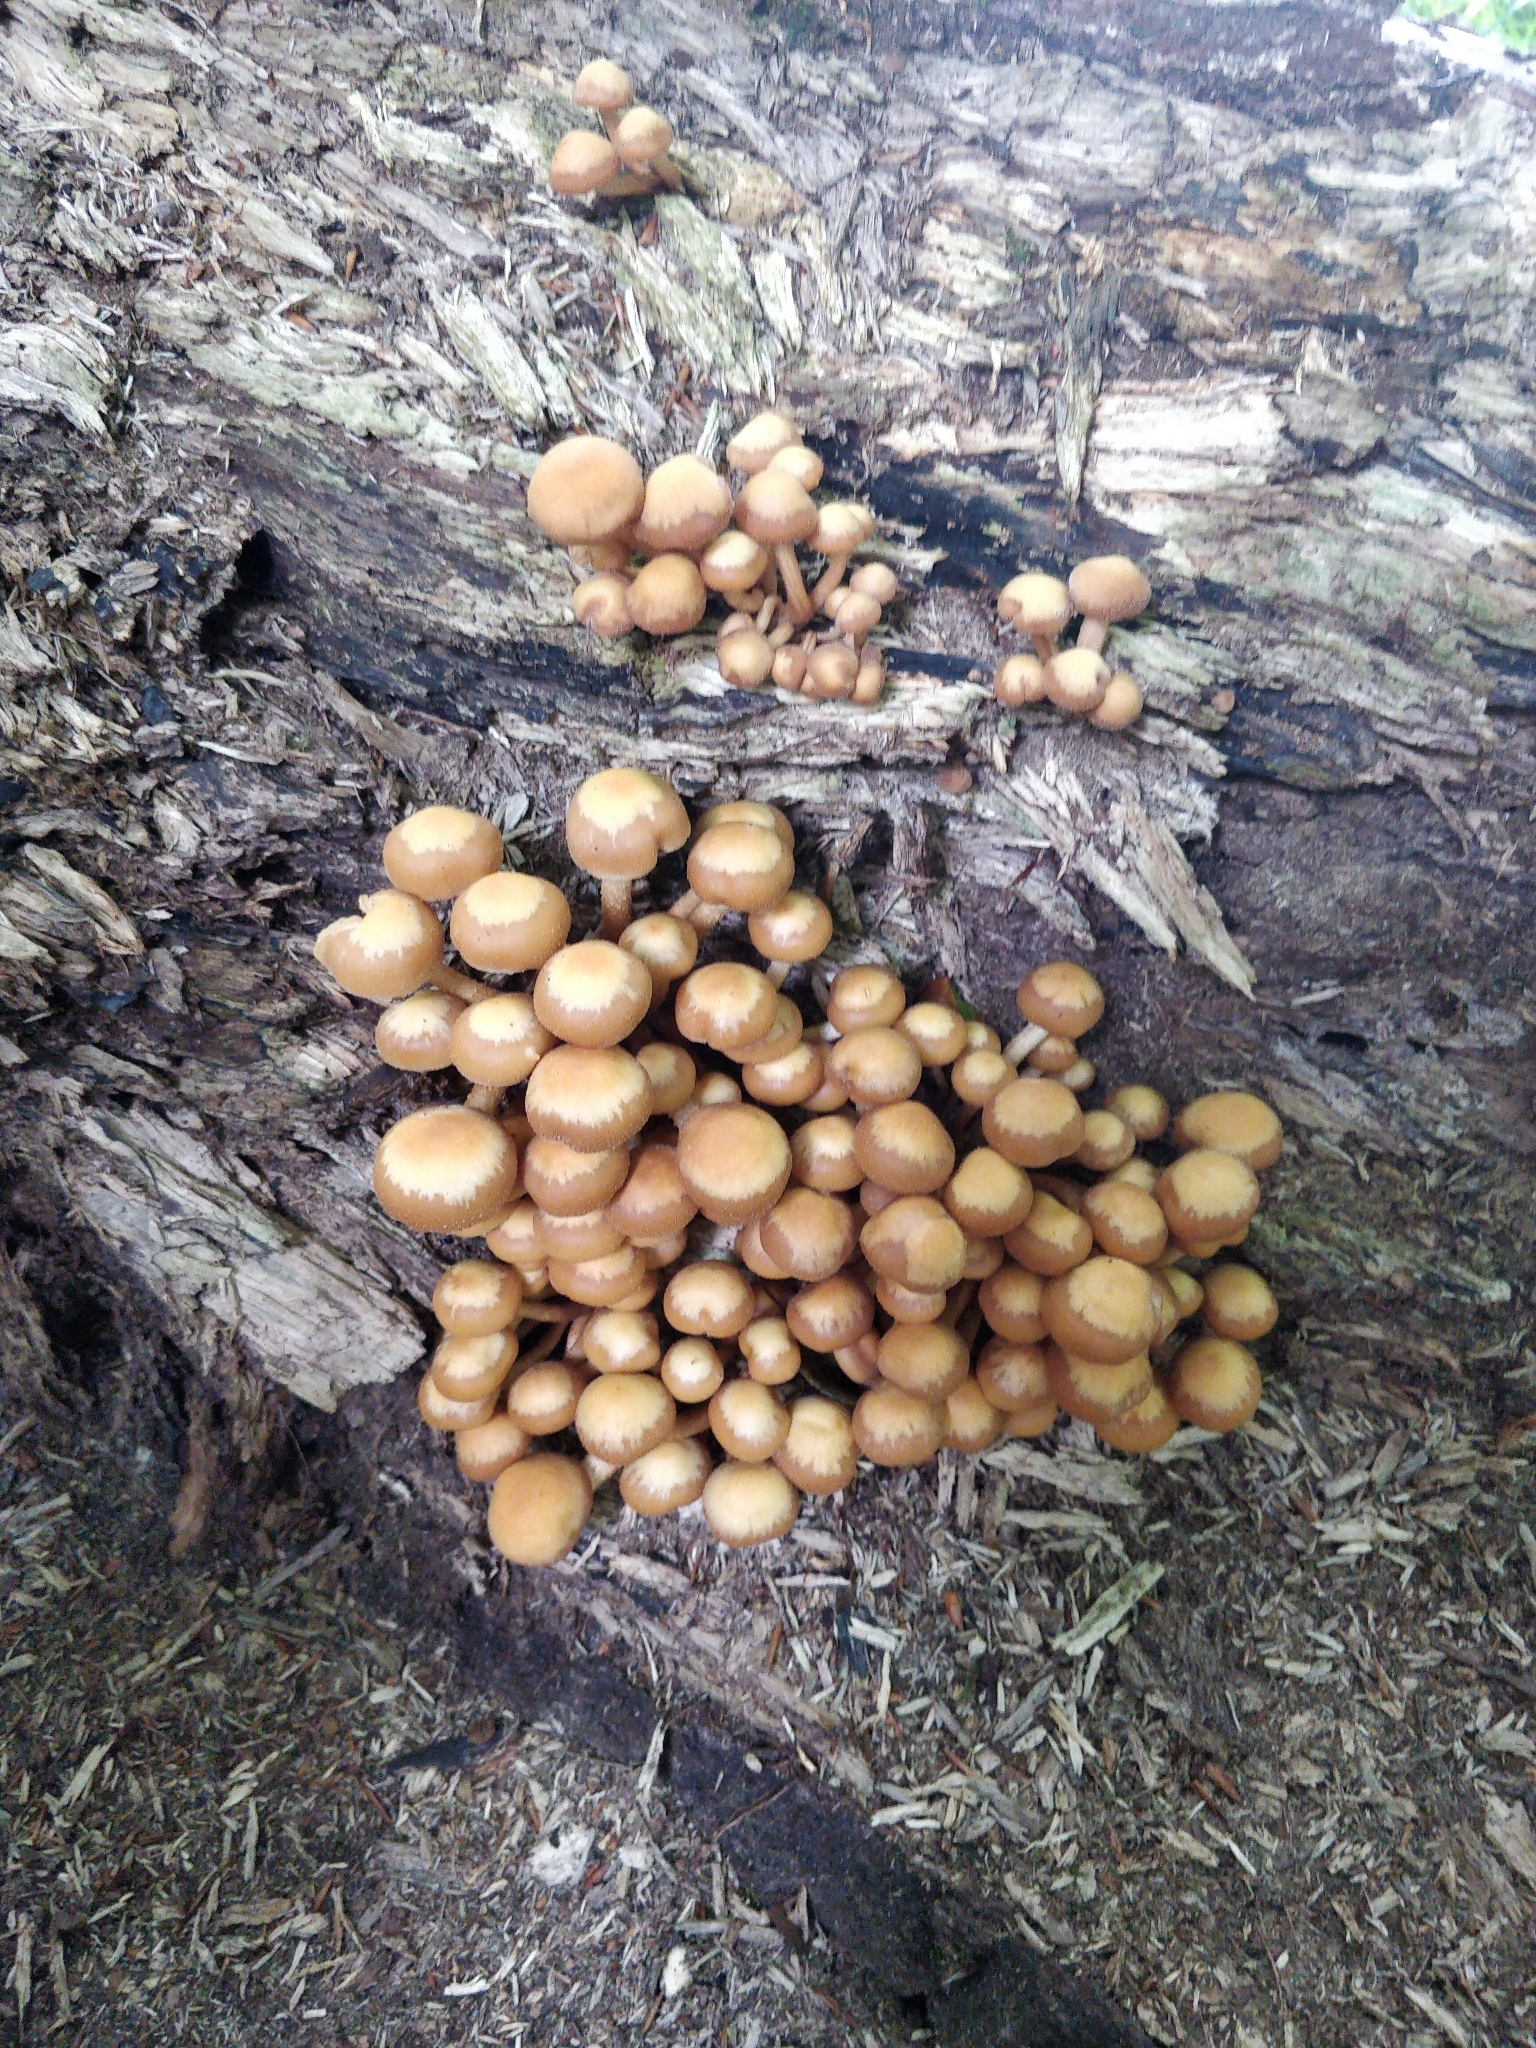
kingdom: Fungi
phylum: Basidiomycota
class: Agaricomycetes
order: Agaricales
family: Strophariaceae
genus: Kuehneromyces
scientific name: Kuehneromyces mutabilis
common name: Sheathed woodtuft
